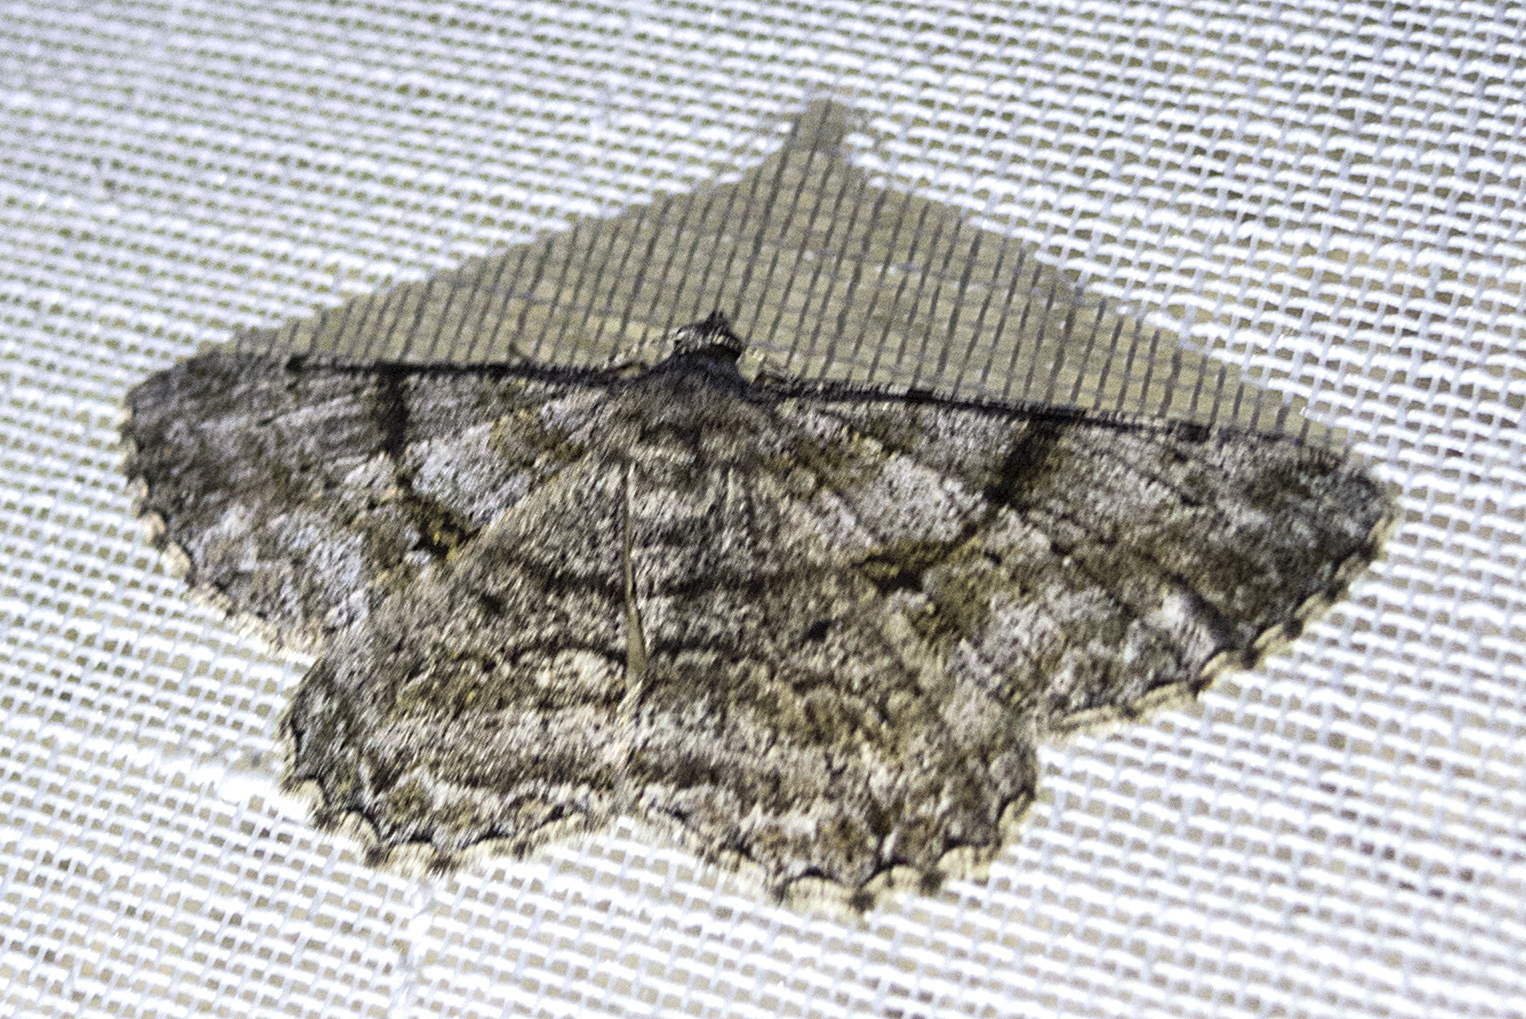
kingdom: Animalia
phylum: Arthropoda
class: Insecta
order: Lepidoptera
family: Geometridae
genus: Peribatodes
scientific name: Peribatodes rhomboidaria
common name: Willow beauty
